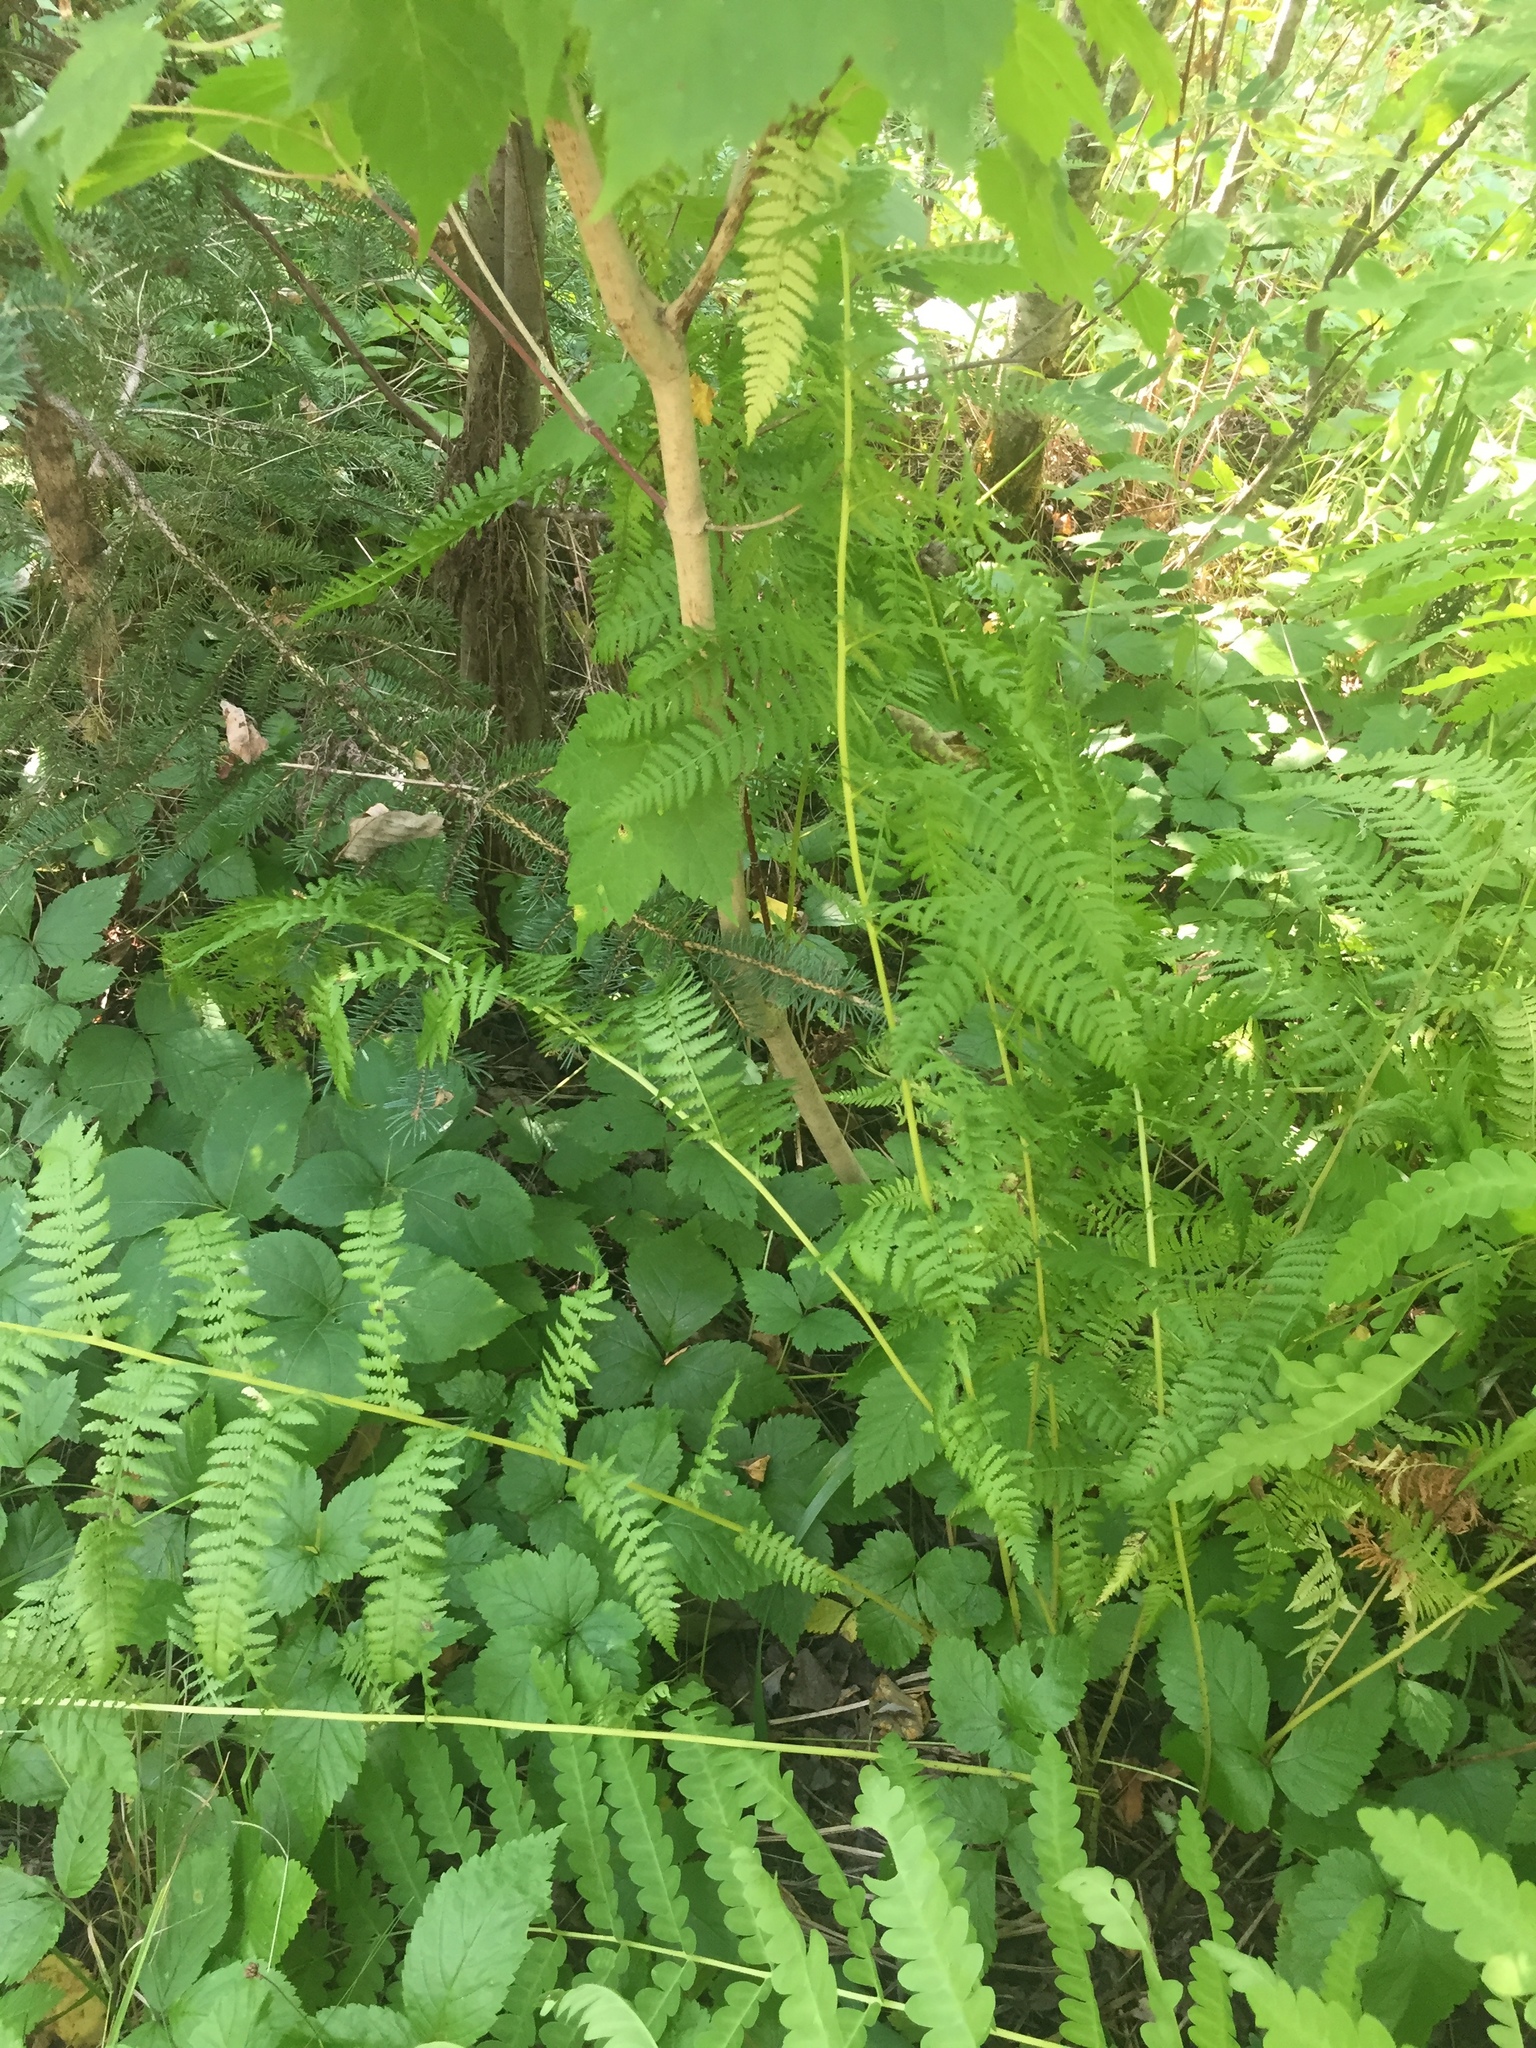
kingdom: Plantae
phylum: Tracheophyta
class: Polypodiopsida
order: Polypodiales
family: Athyriaceae
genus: Athyrium
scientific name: Athyrium angustum
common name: Northern lady fern
